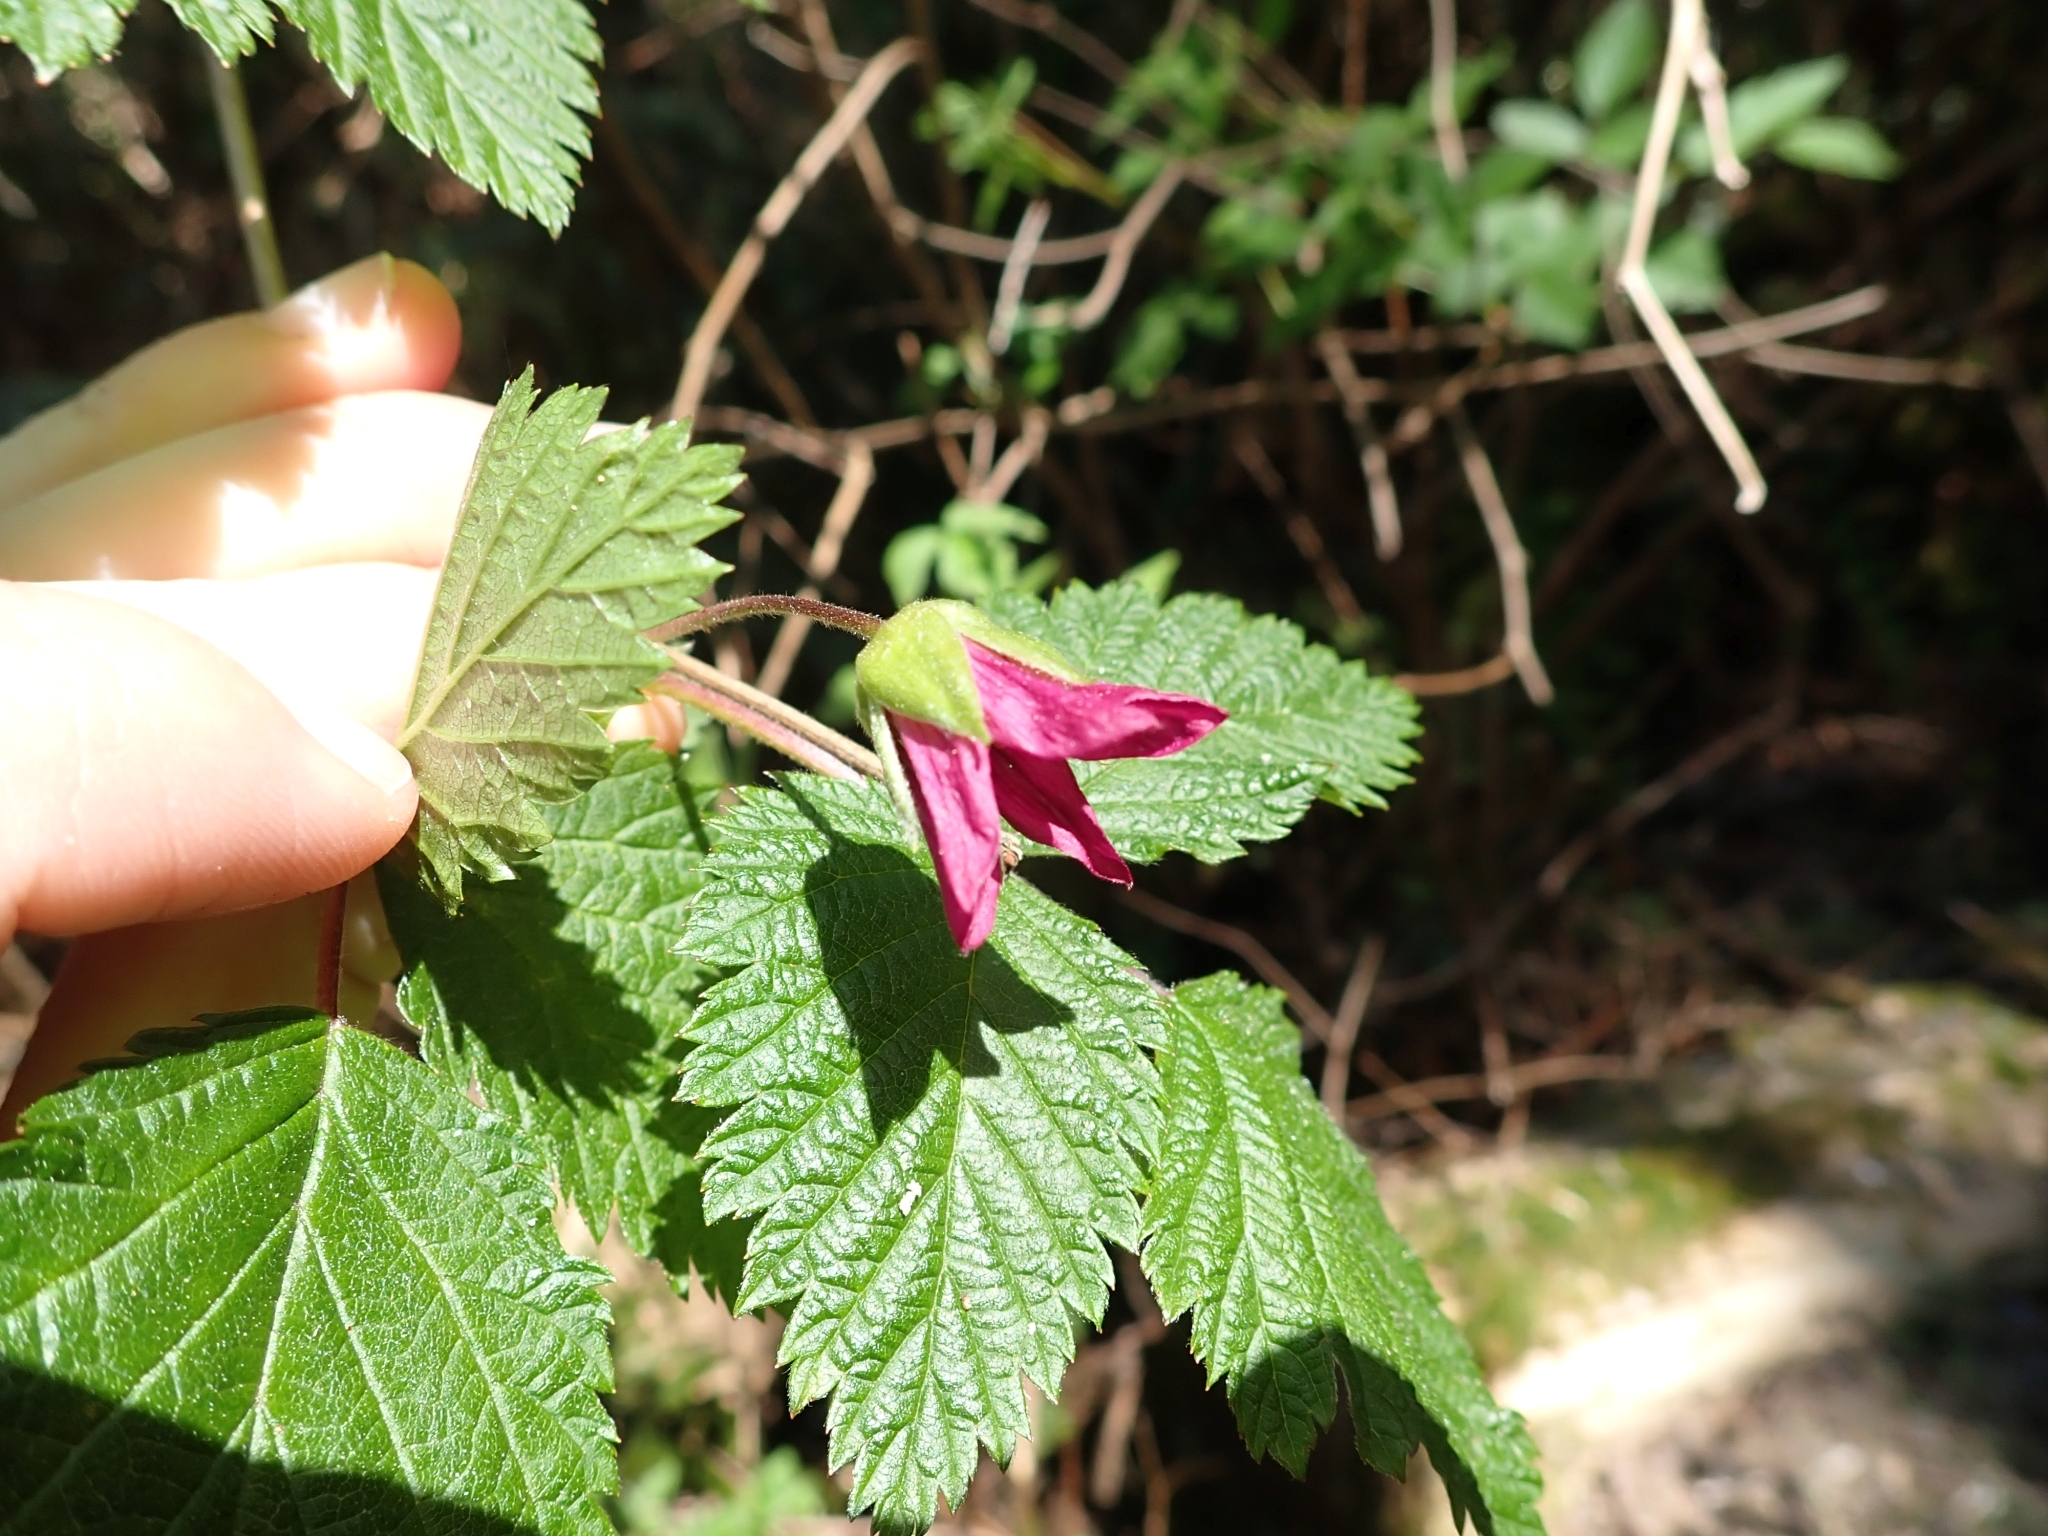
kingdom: Plantae
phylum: Tracheophyta
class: Magnoliopsida
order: Rosales
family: Rosaceae
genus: Rubus
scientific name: Rubus spectabilis
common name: Salmonberry
